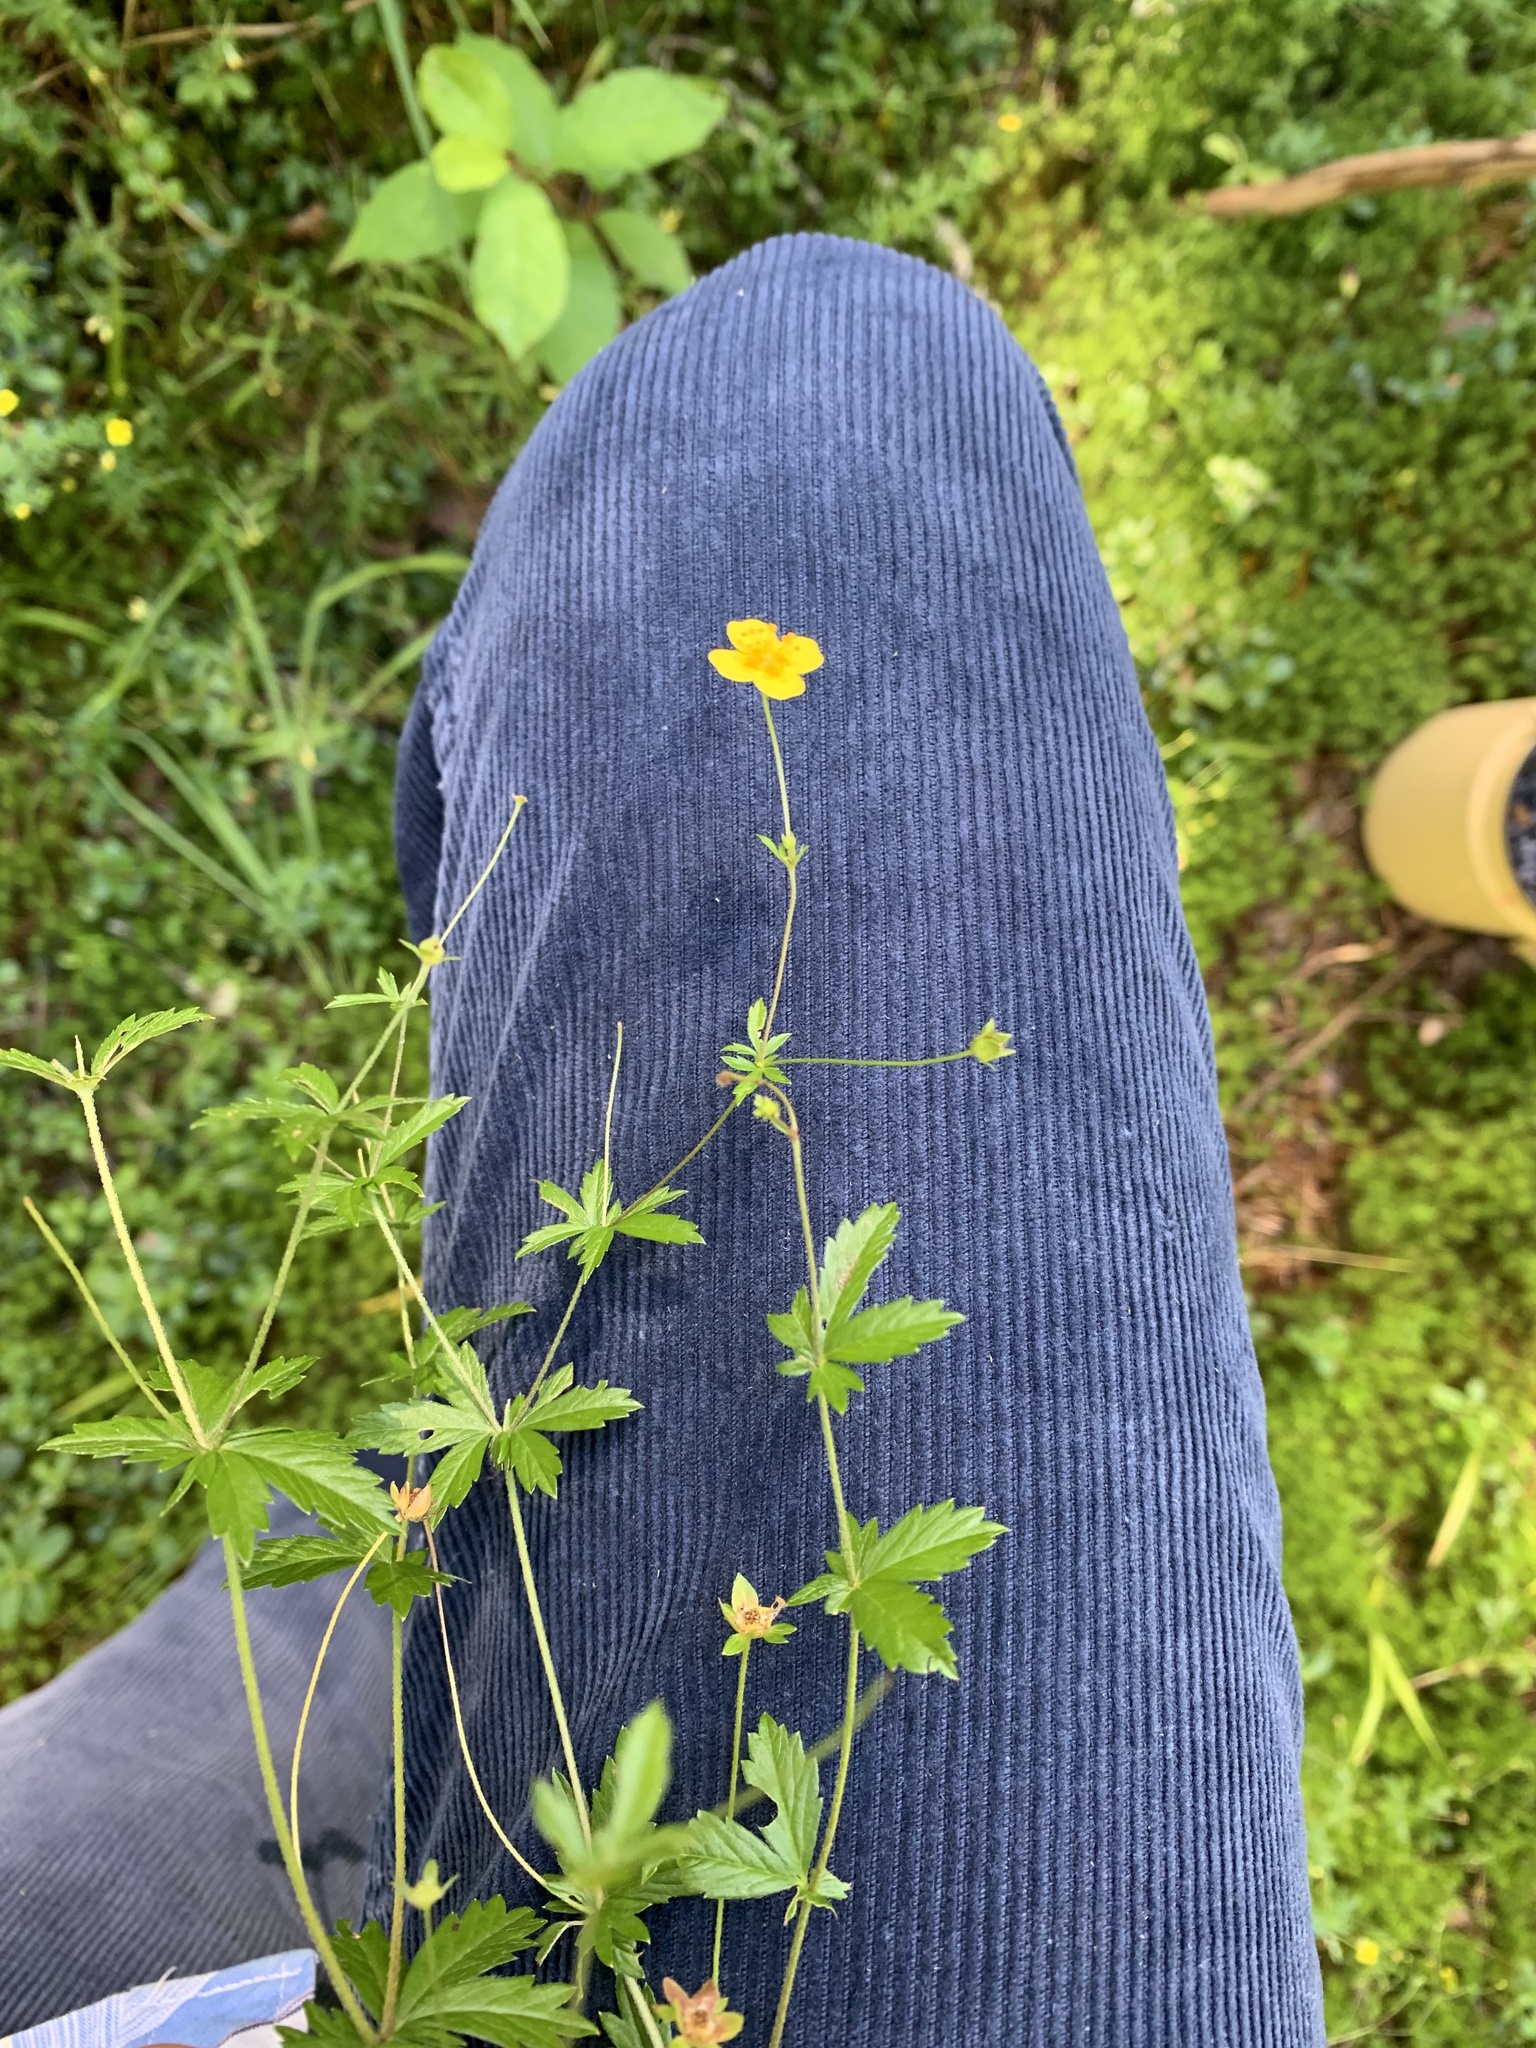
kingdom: Plantae
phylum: Tracheophyta
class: Magnoliopsida
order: Rosales
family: Rosaceae
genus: Potentilla
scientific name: Potentilla erecta
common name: Tormentil
